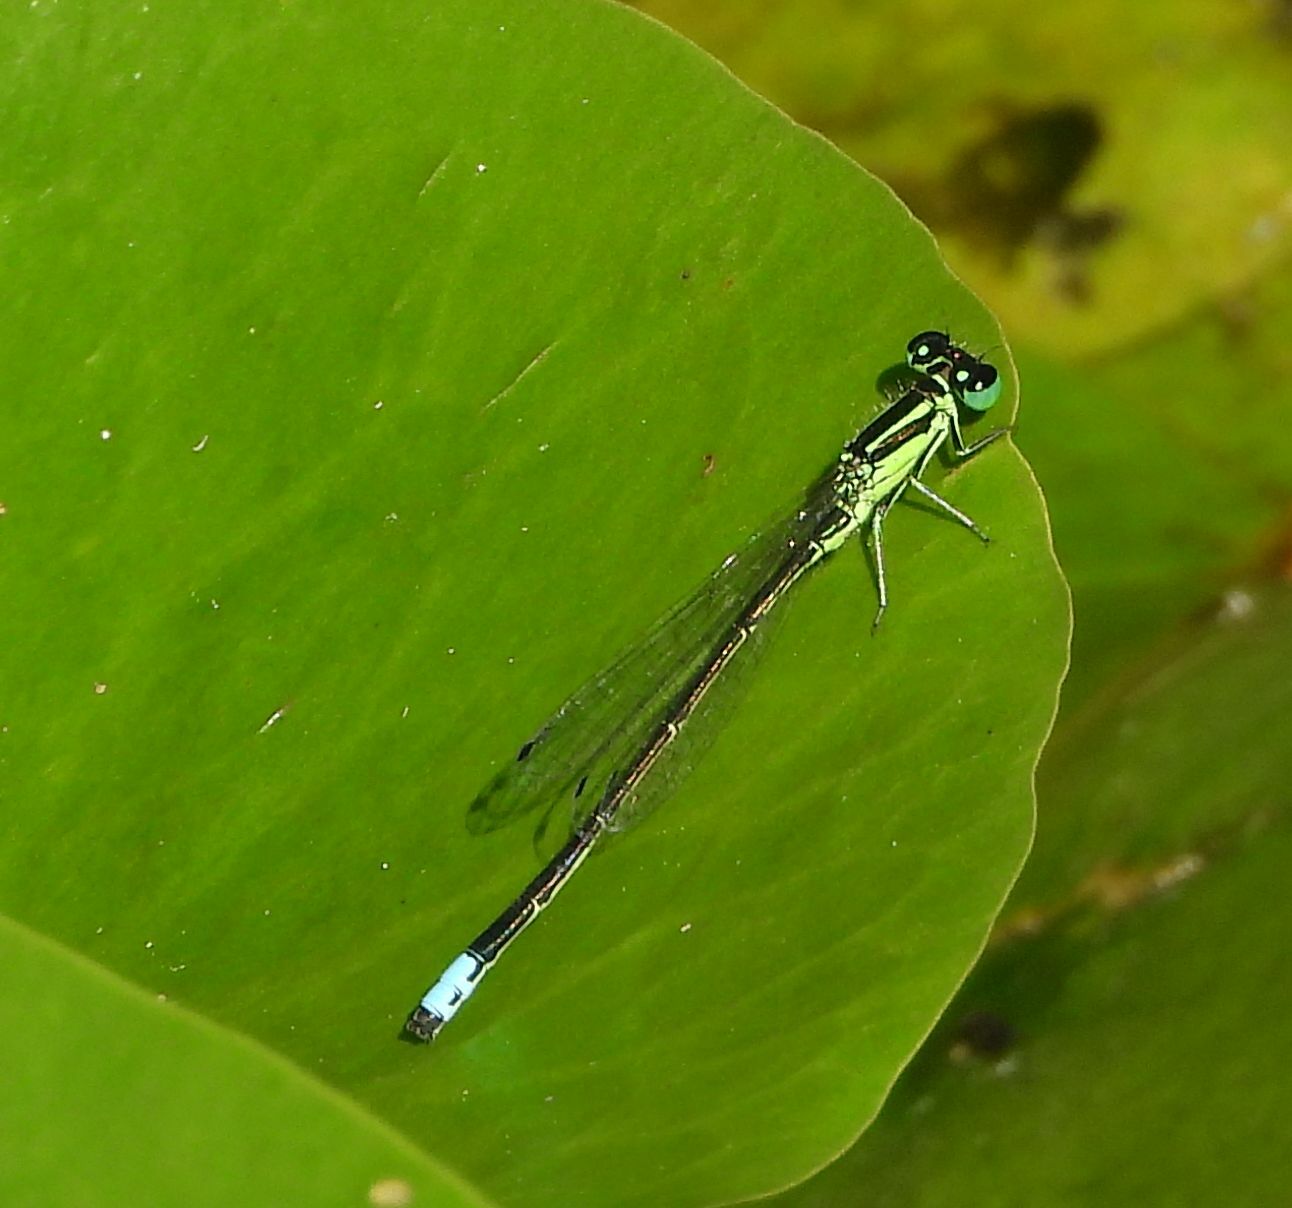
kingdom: Animalia
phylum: Arthropoda
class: Insecta
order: Odonata
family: Coenagrionidae
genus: Ischnura
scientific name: Ischnura verticalis
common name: Eastern forktail
